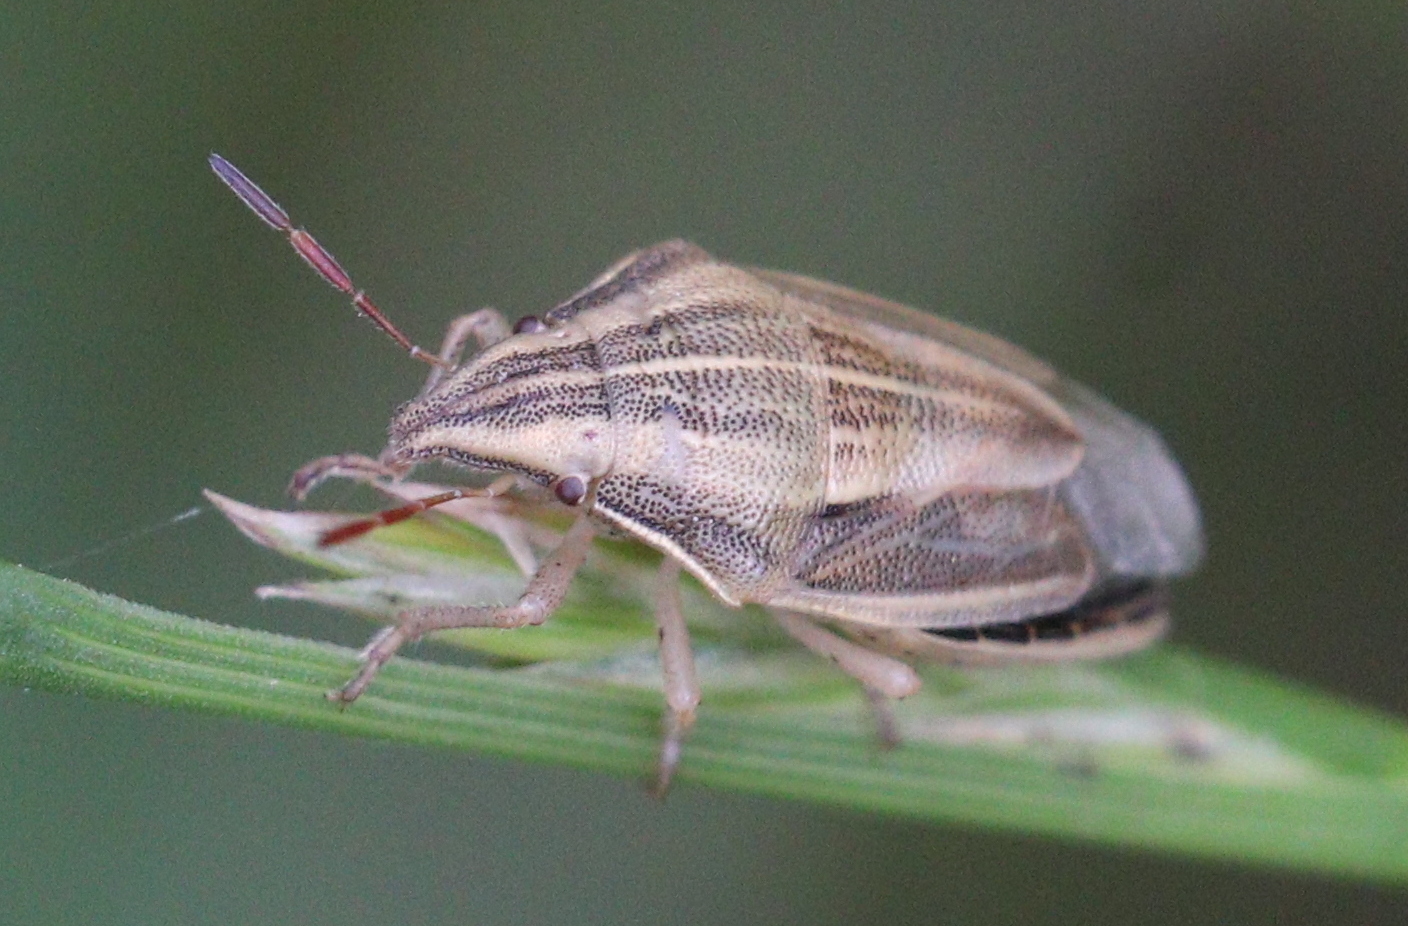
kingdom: Animalia
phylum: Arthropoda
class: Insecta
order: Hemiptera
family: Pentatomidae
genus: Aelia
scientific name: Aelia acuminata
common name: Bishop's mitre
